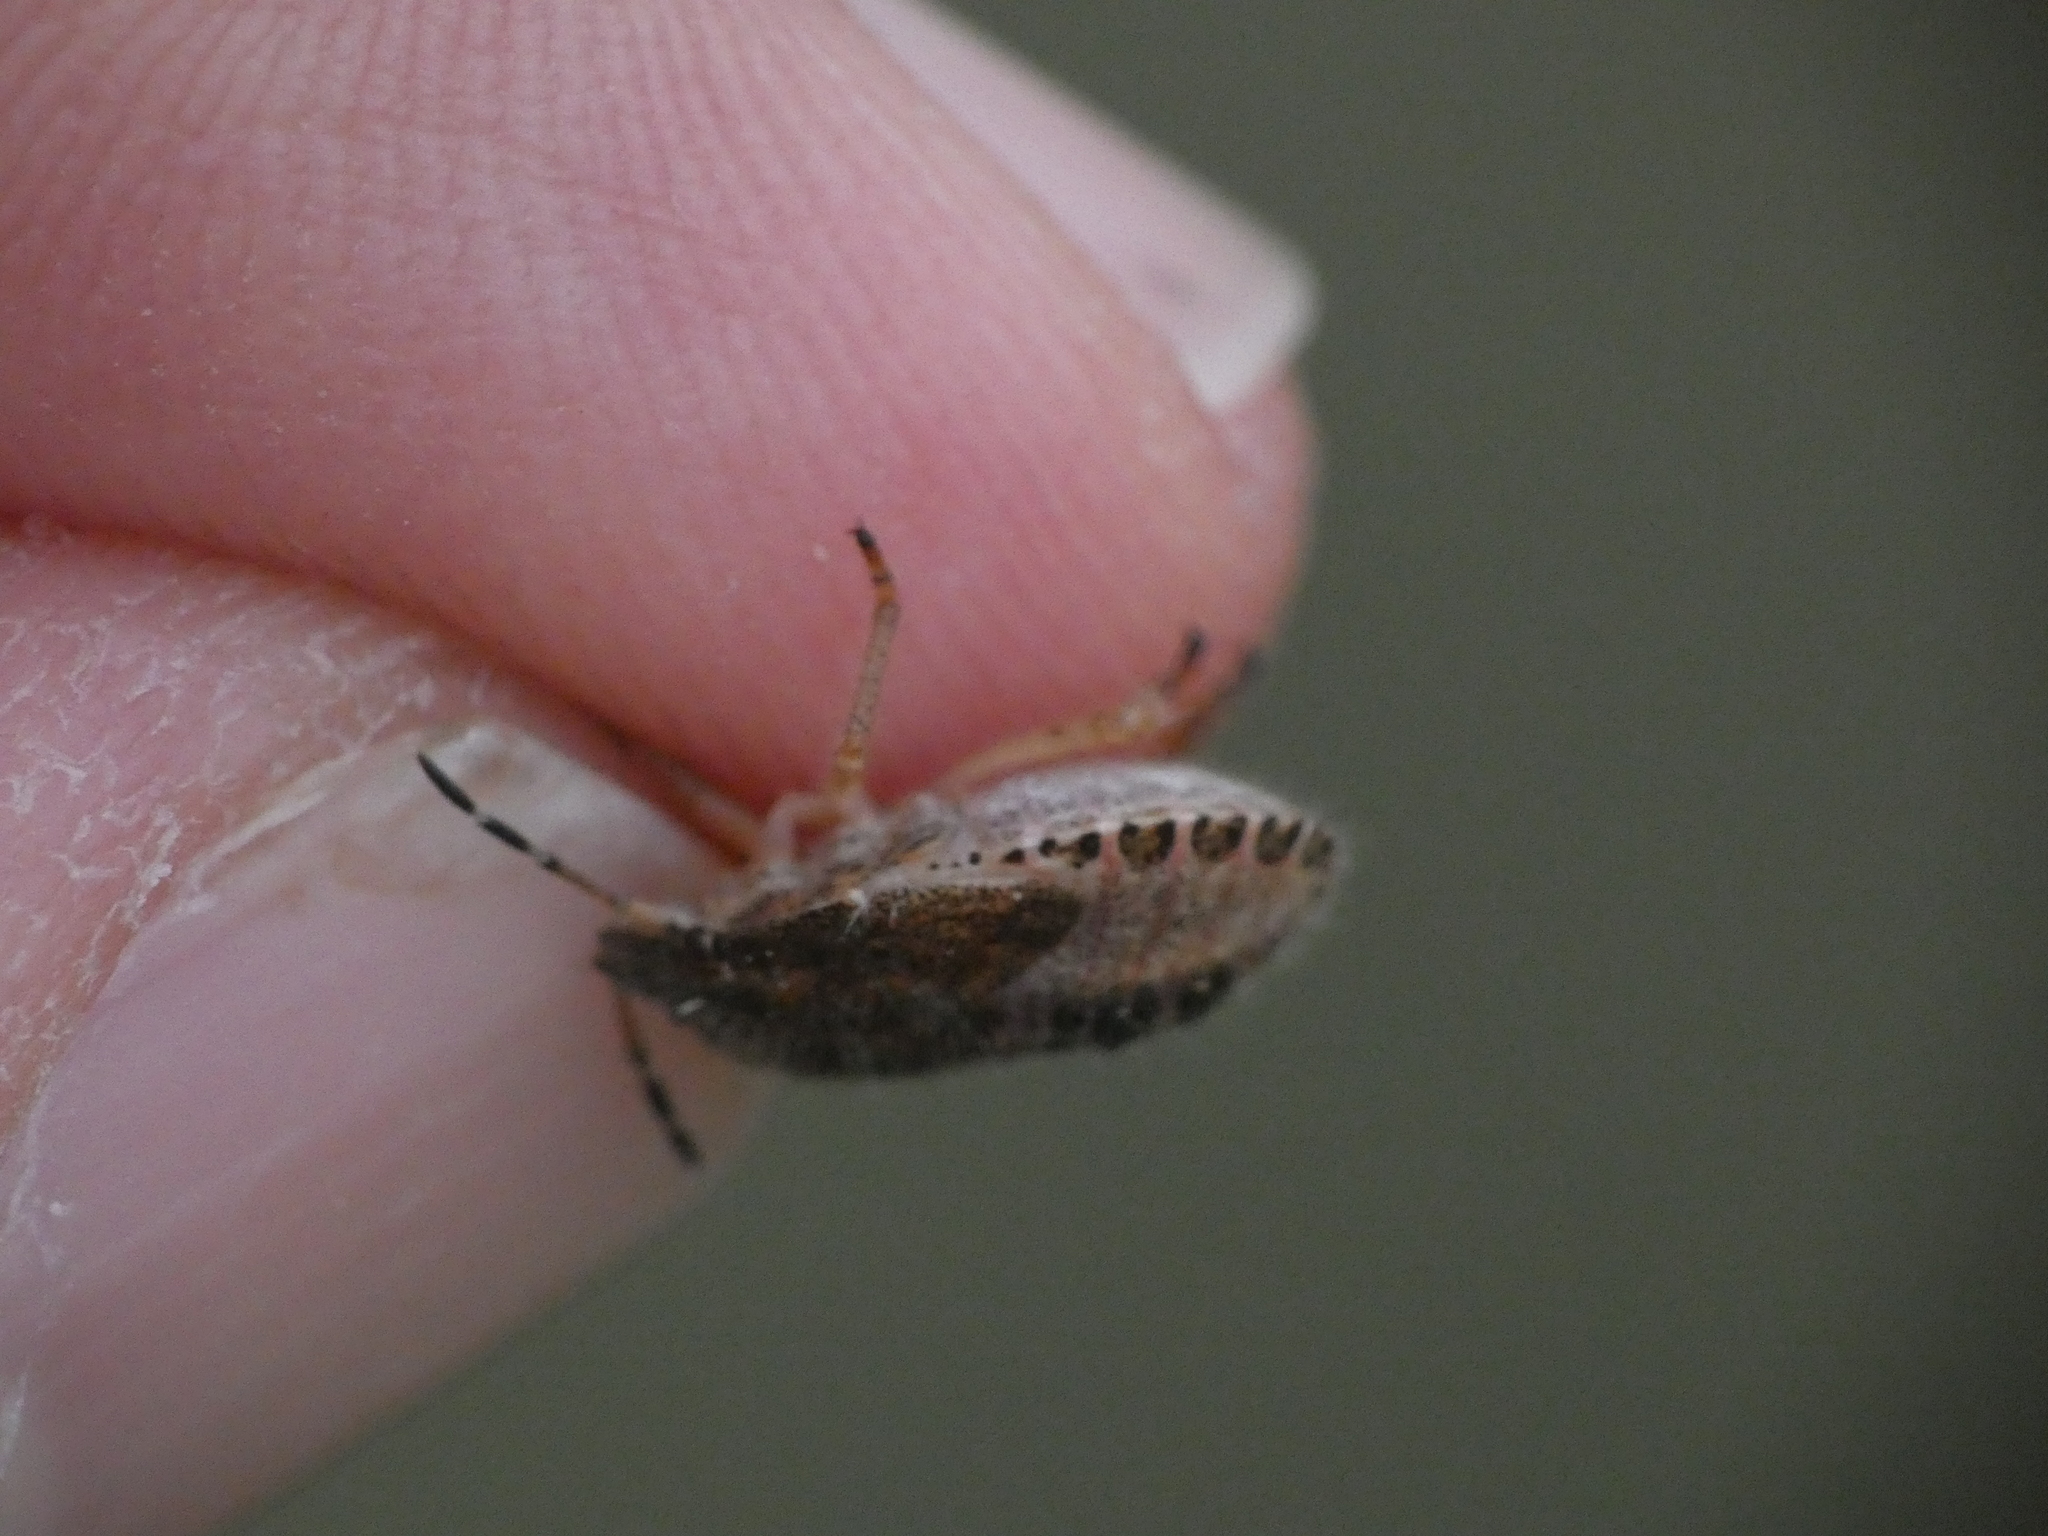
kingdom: Animalia
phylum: Arthropoda
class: Insecta
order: Hemiptera
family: Pentatomidae
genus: Dolycoris
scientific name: Dolycoris baccarum
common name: Sloe bug
